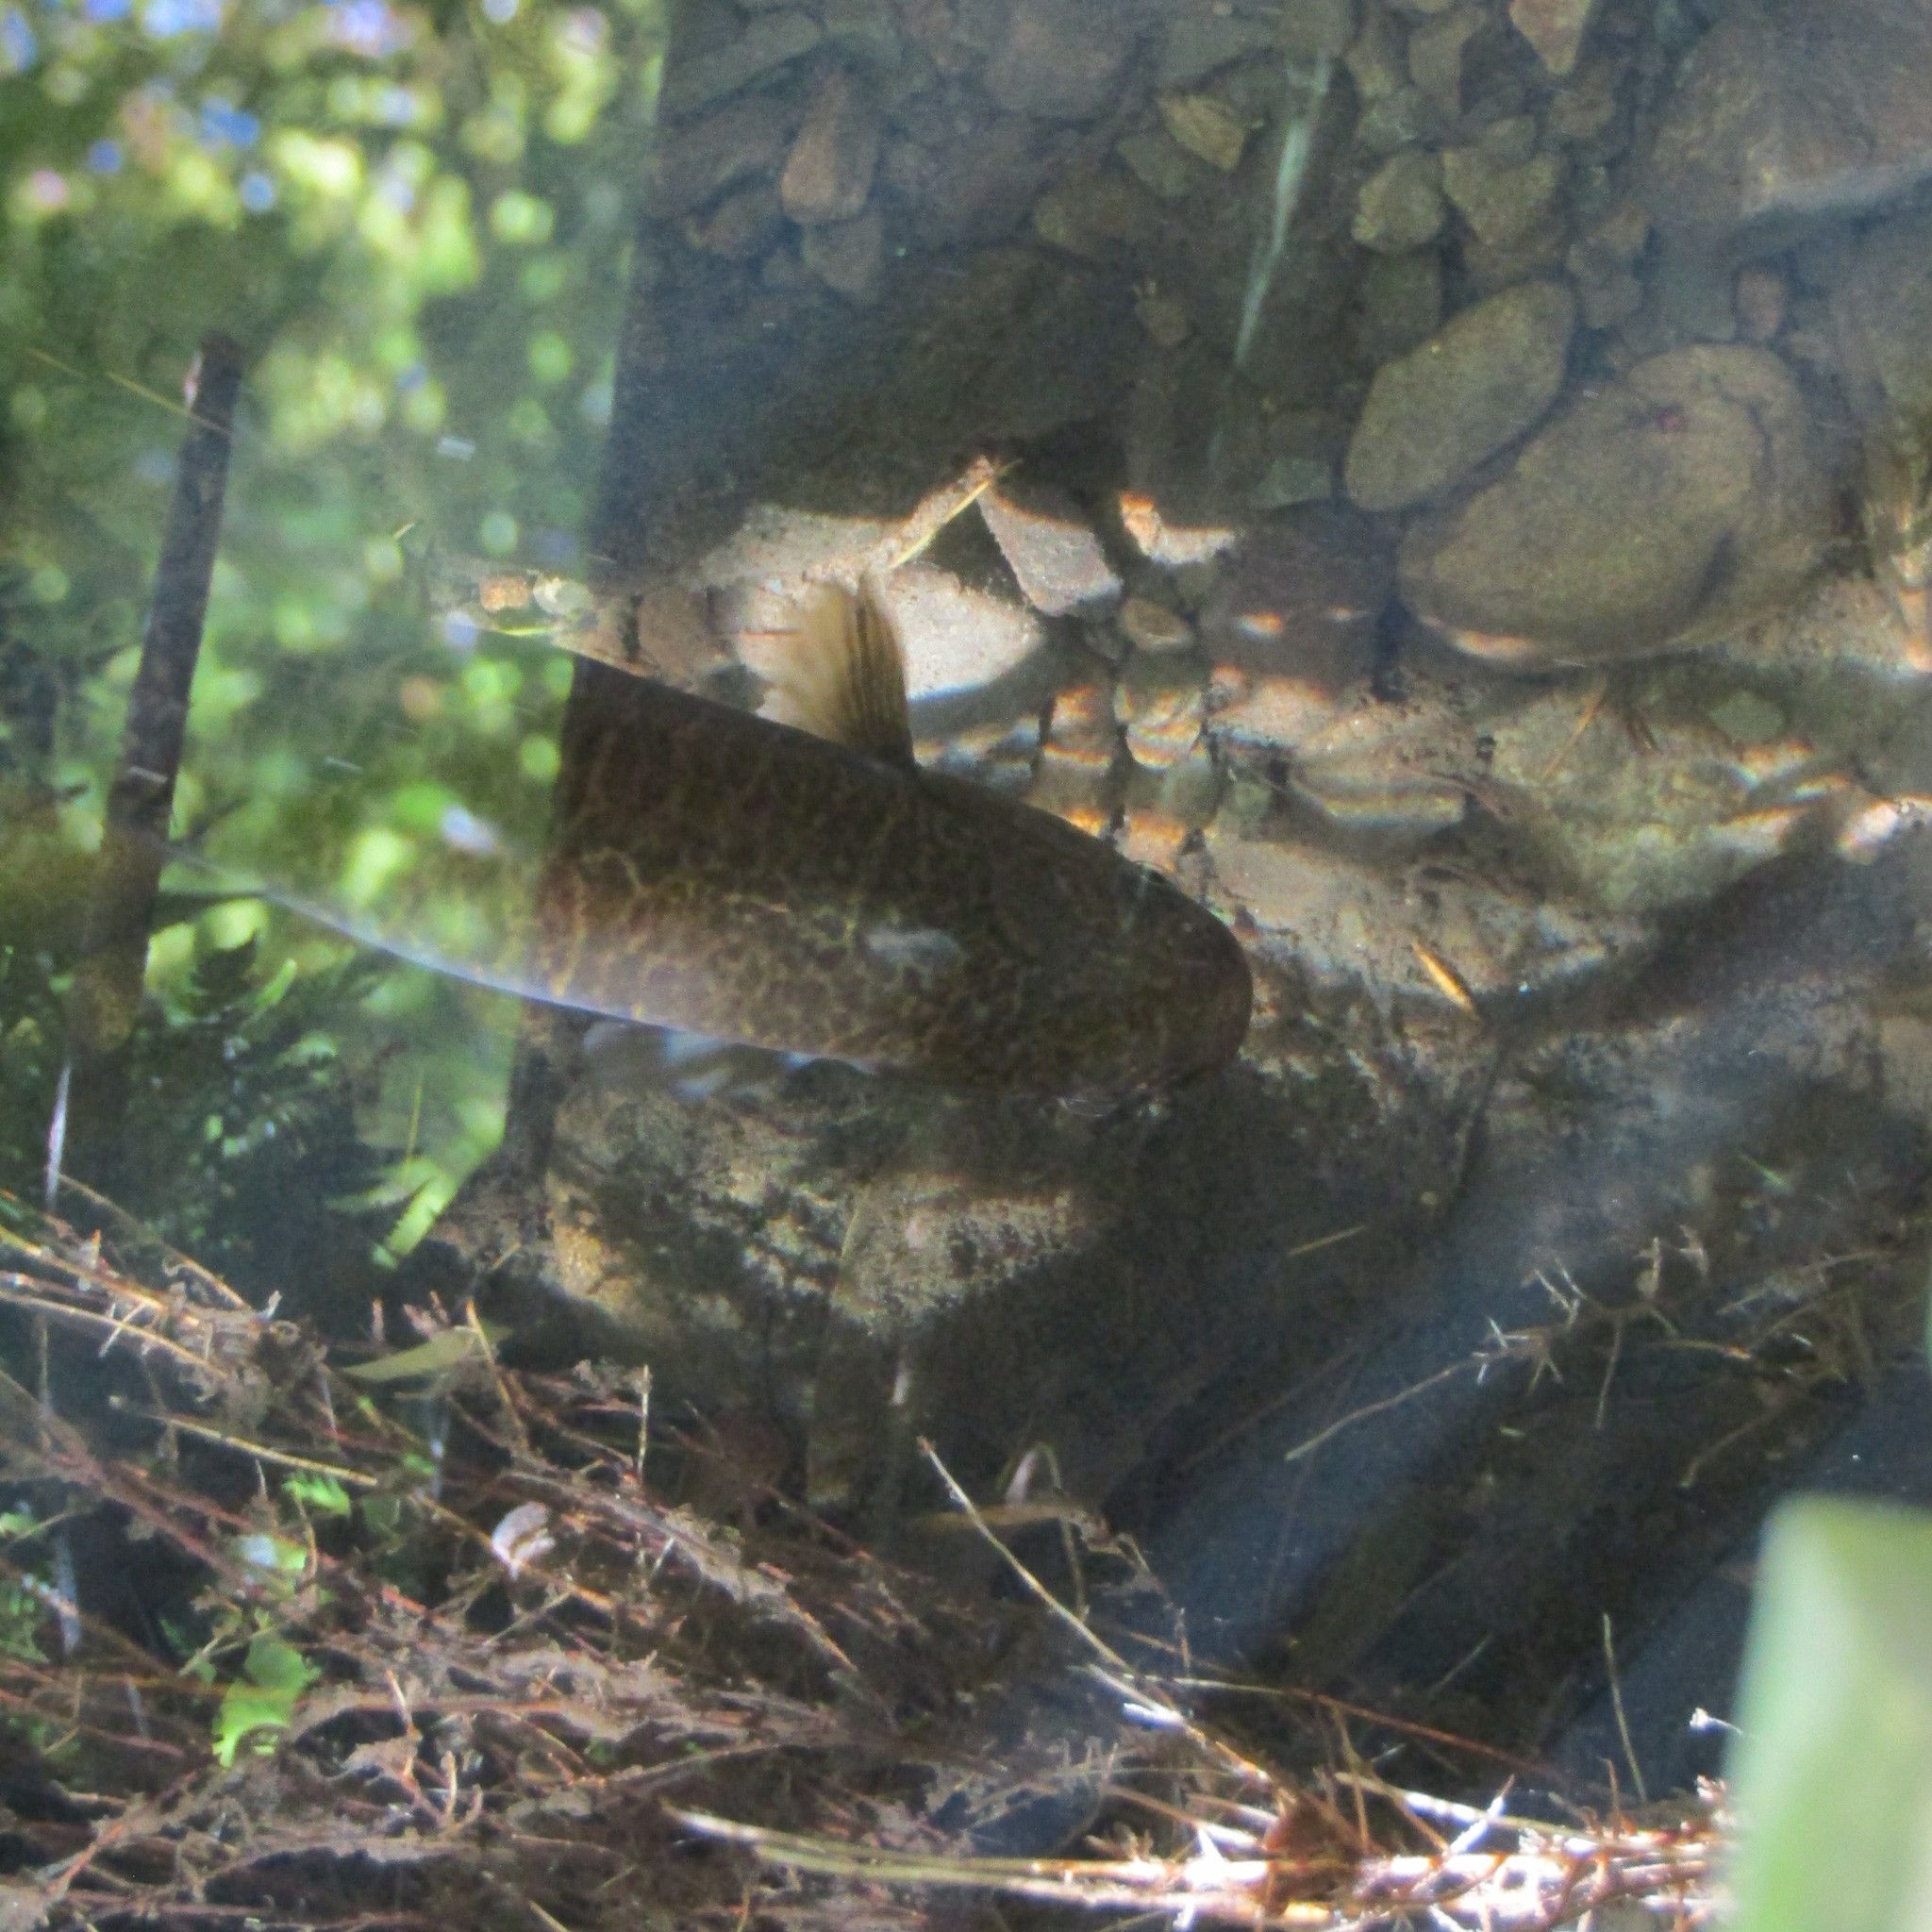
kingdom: Animalia
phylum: Chordata
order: Osmeriformes
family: Galaxiidae
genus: Galaxias
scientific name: Galaxias argenteus
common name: Giant kokopu
